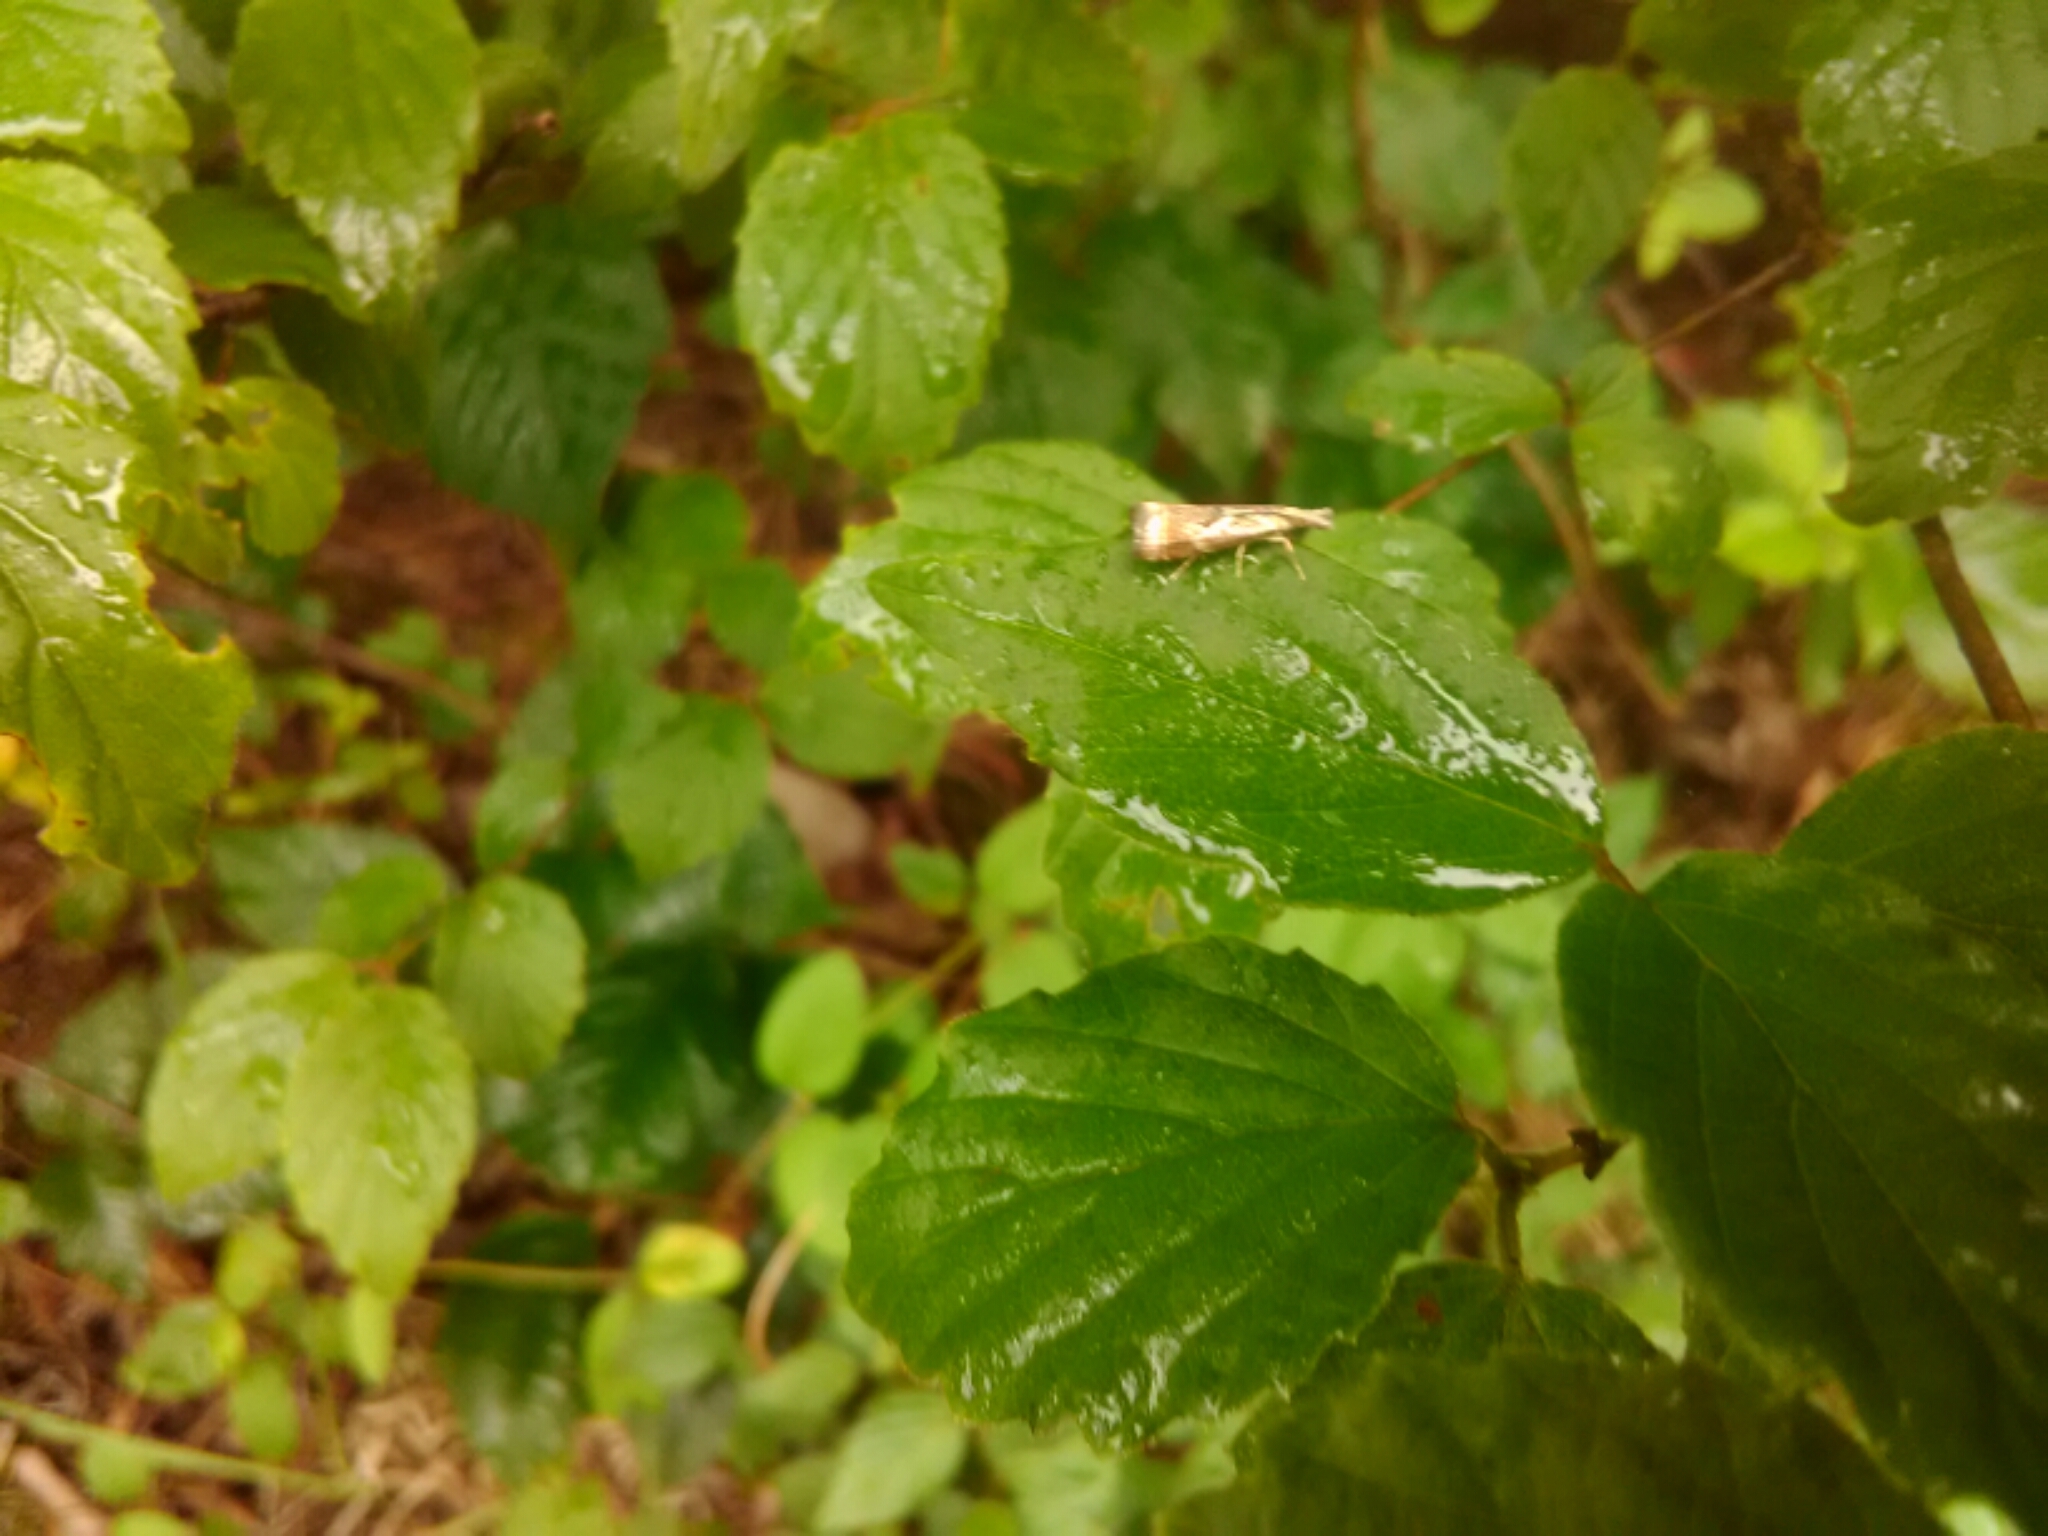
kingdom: Animalia
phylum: Arthropoda
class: Insecta
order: Lepidoptera
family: Crambidae
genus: Microcrambus
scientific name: Microcrambus elegans
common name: Elegant grass-veneer
